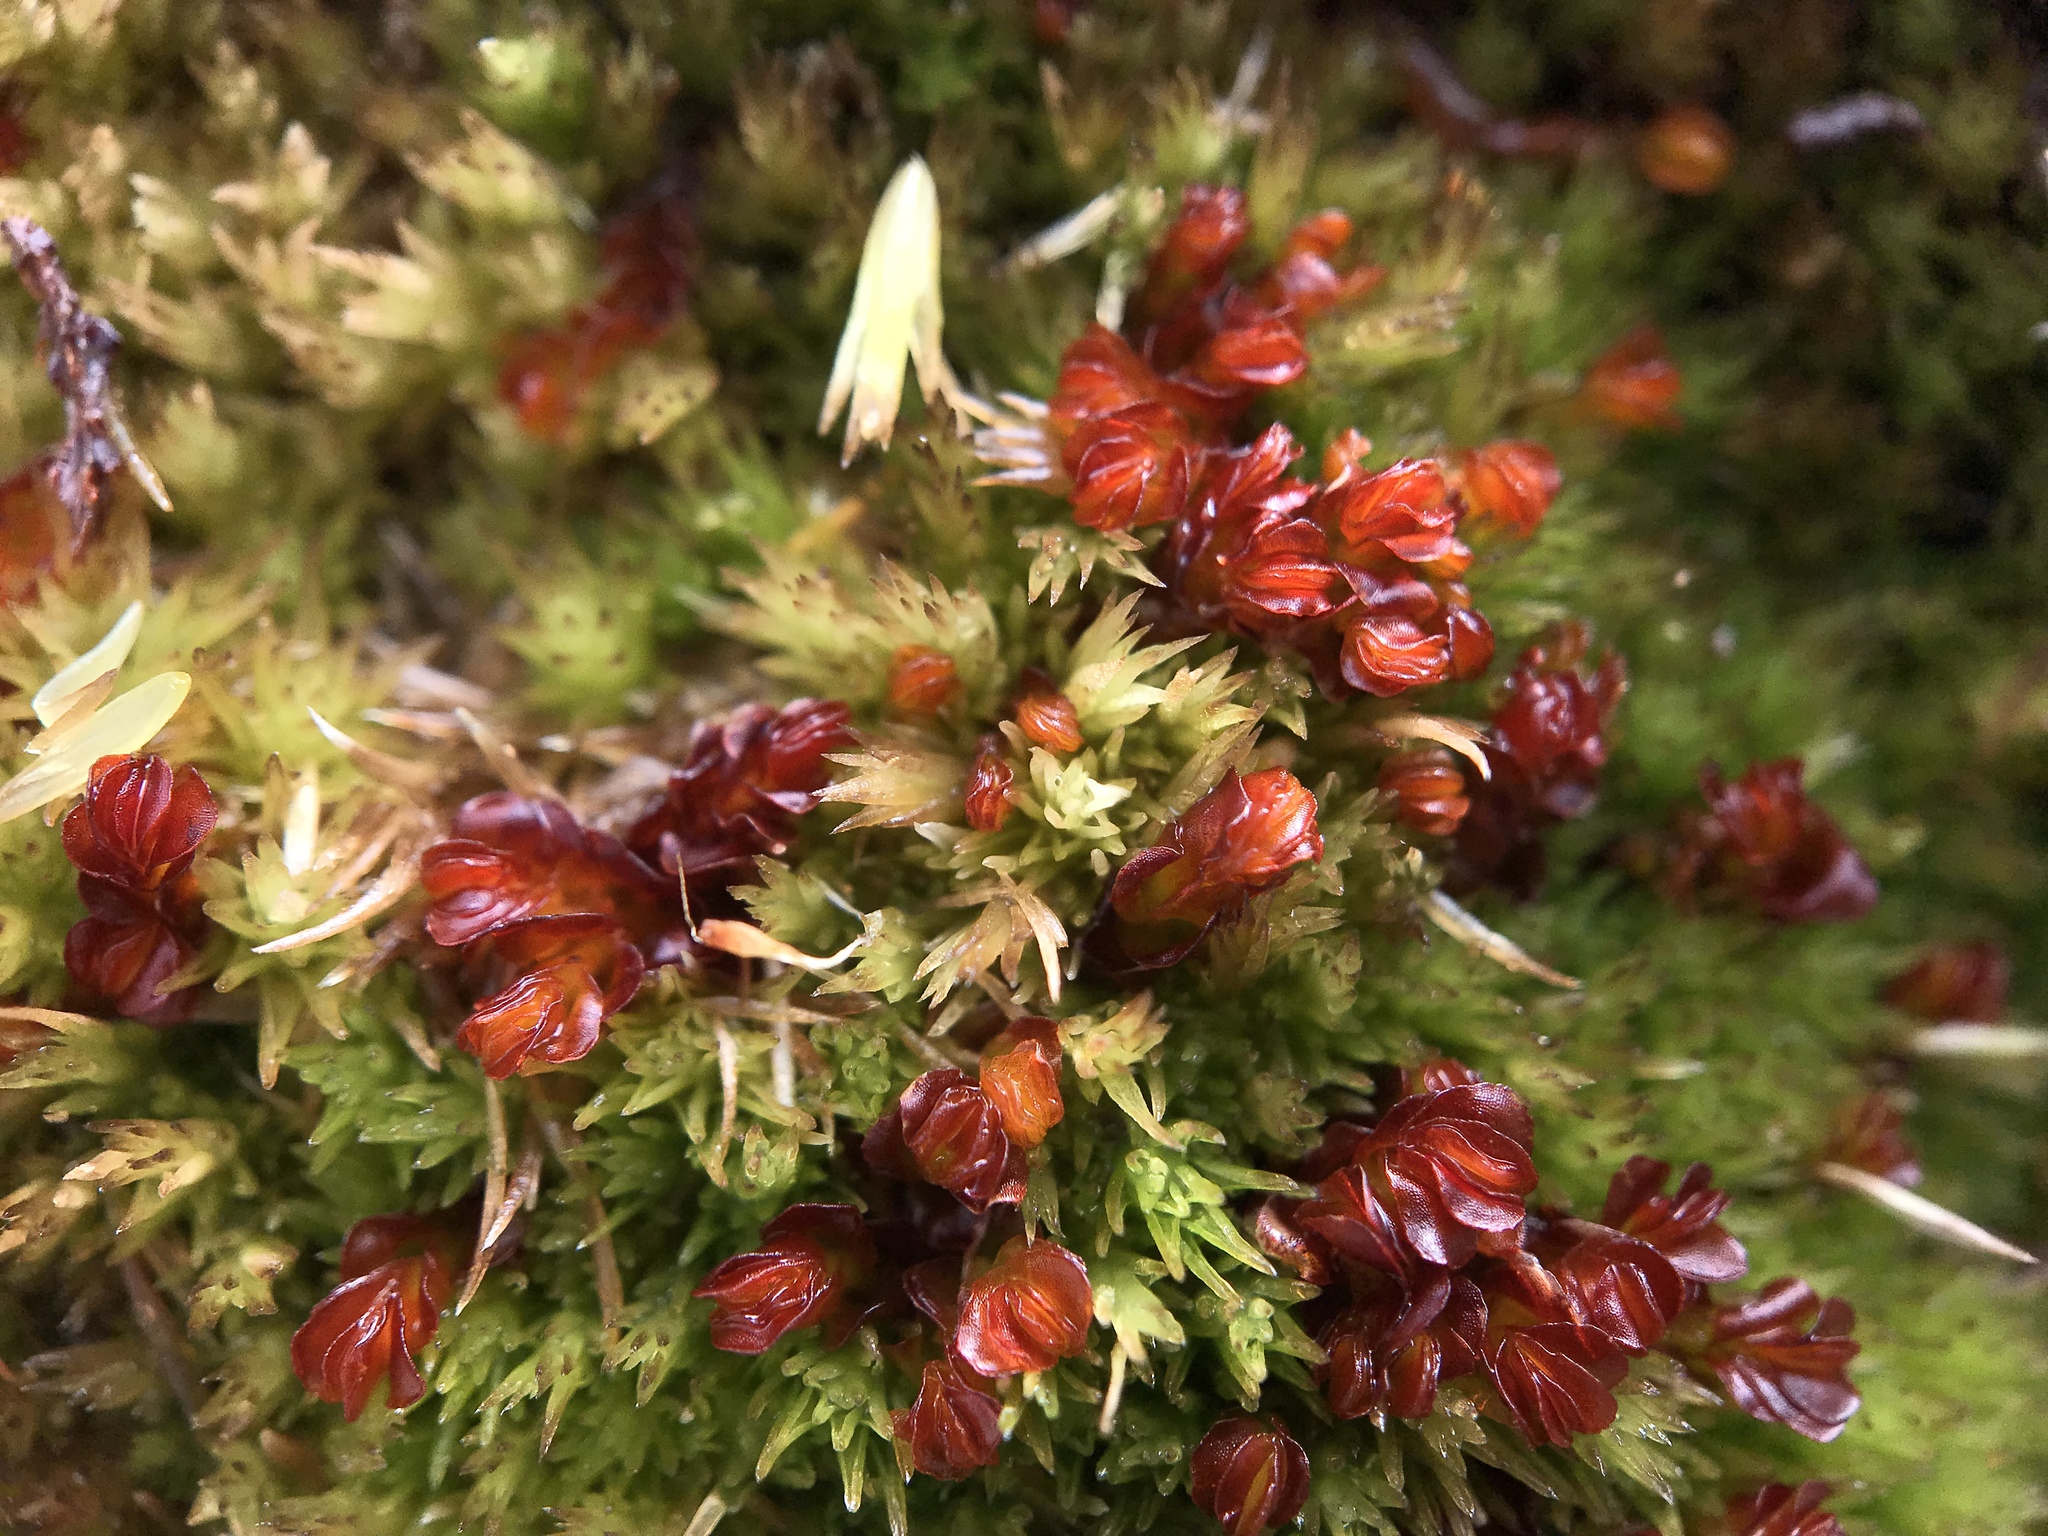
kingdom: Plantae
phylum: Marchantiophyta
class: Jungermanniopsida
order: Jungermanniales
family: Myliaceae
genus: Mylia
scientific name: Mylia taylorii
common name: Taylor s flapwort
